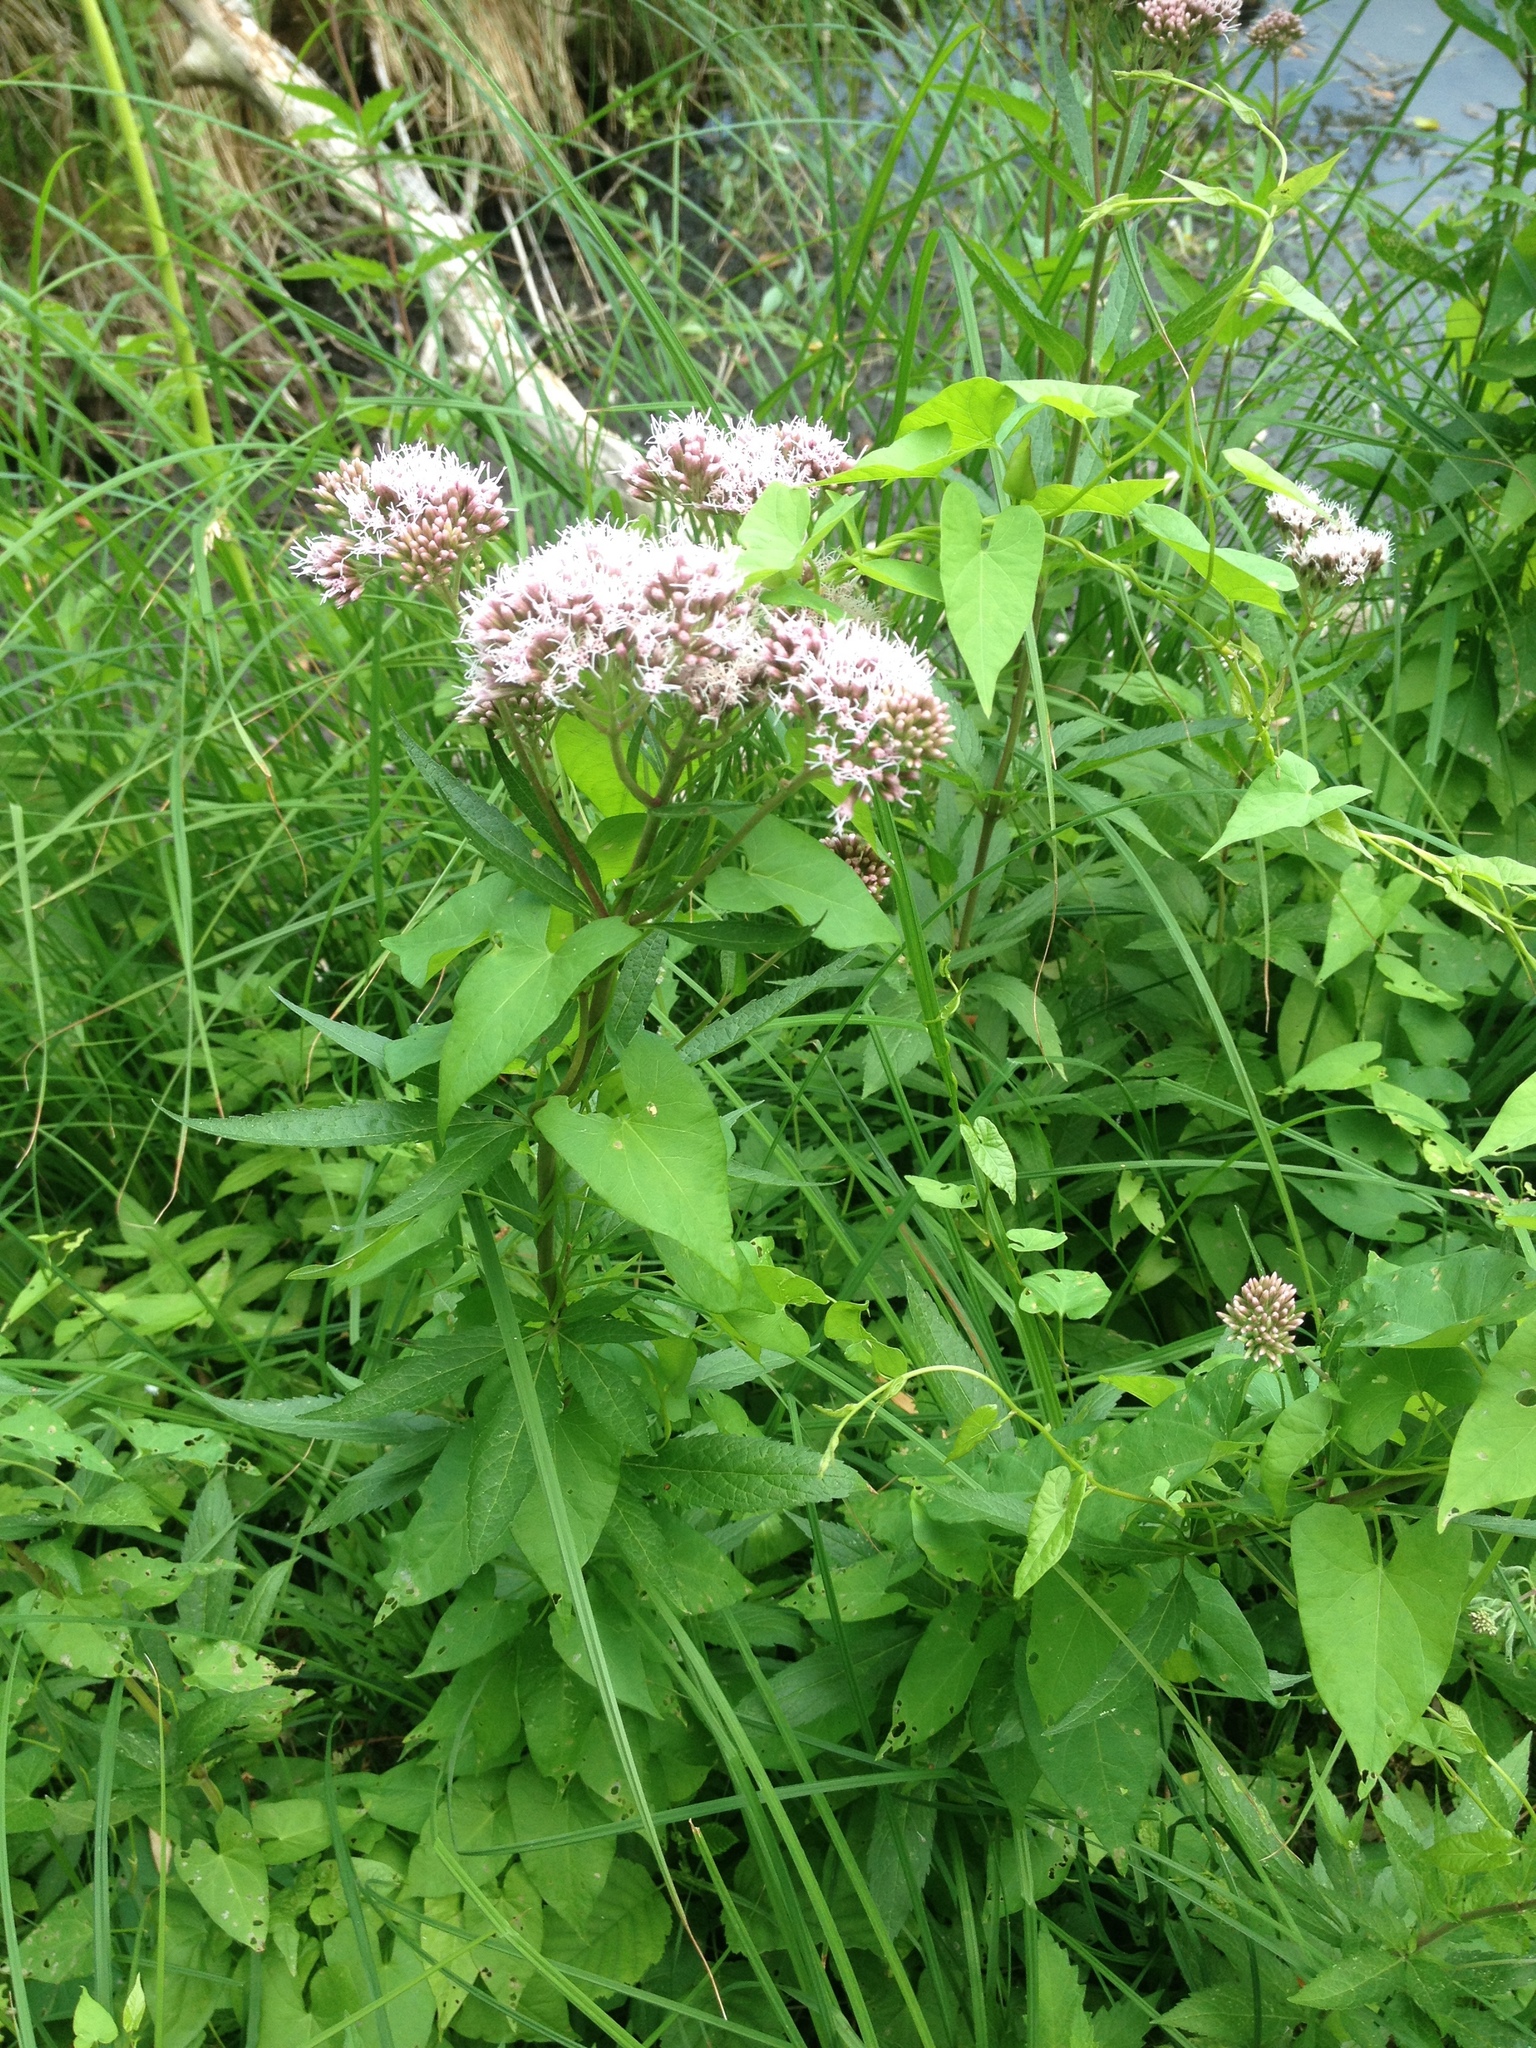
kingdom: Plantae
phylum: Tracheophyta
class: Magnoliopsida
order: Asterales
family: Asteraceae
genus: Eupatorium
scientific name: Eupatorium cannabinum
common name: Hemp-agrimony
